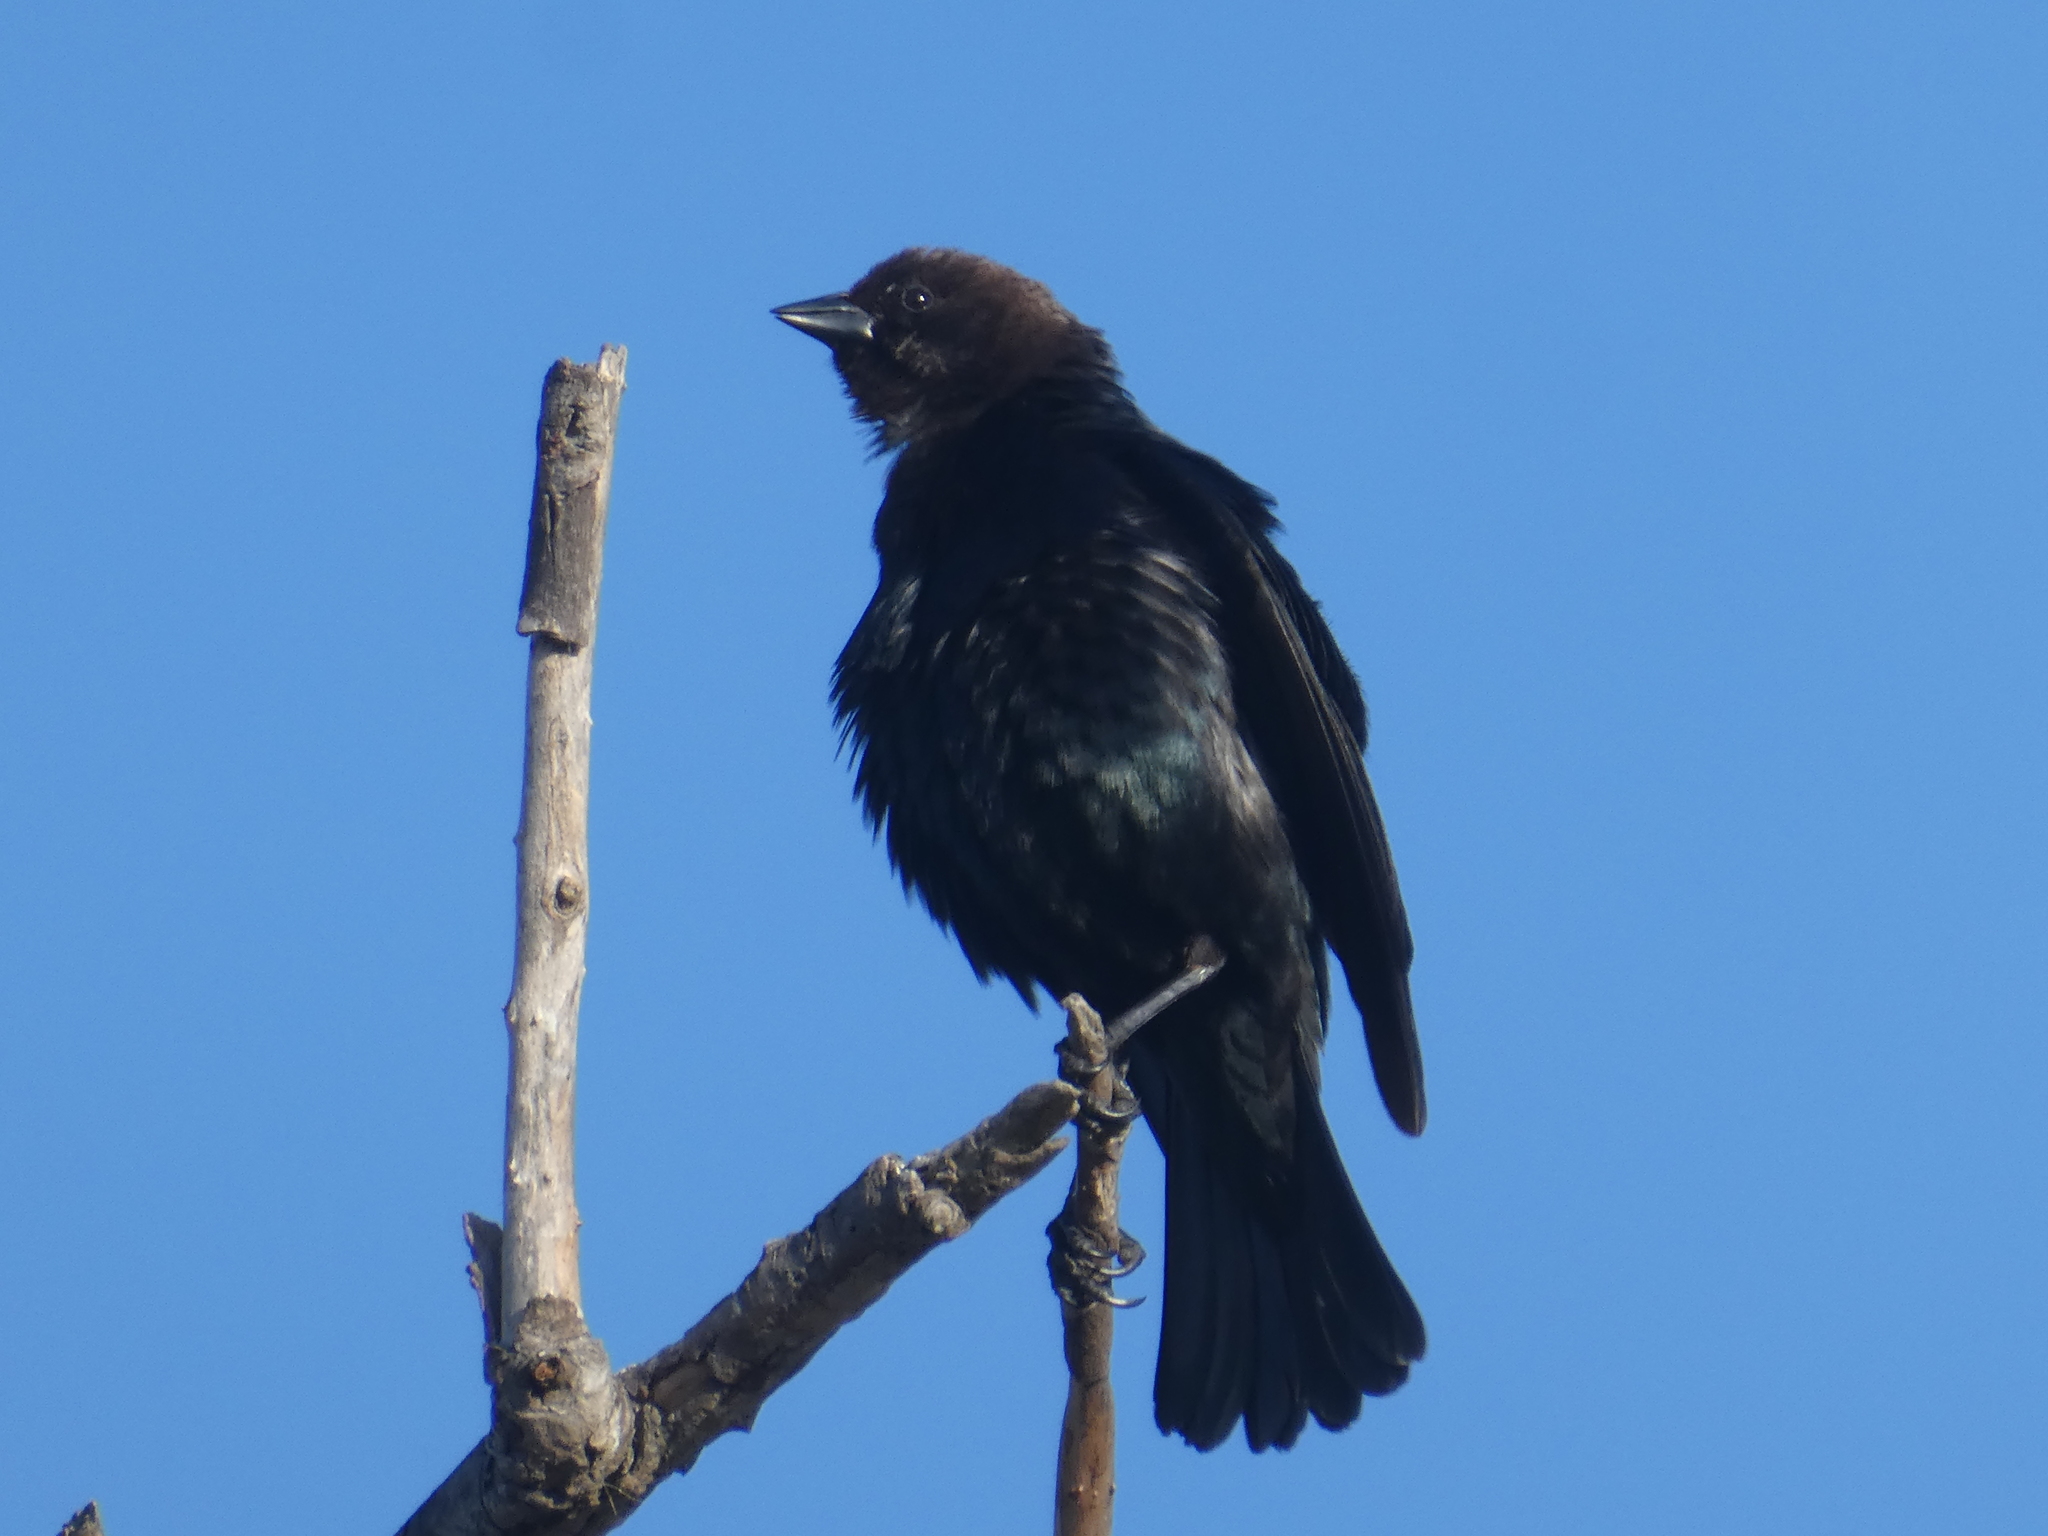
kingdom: Animalia
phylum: Chordata
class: Aves
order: Passeriformes
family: Icteridae
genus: Molothrus
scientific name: Molothrus ater
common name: Brown-headed cowbird
